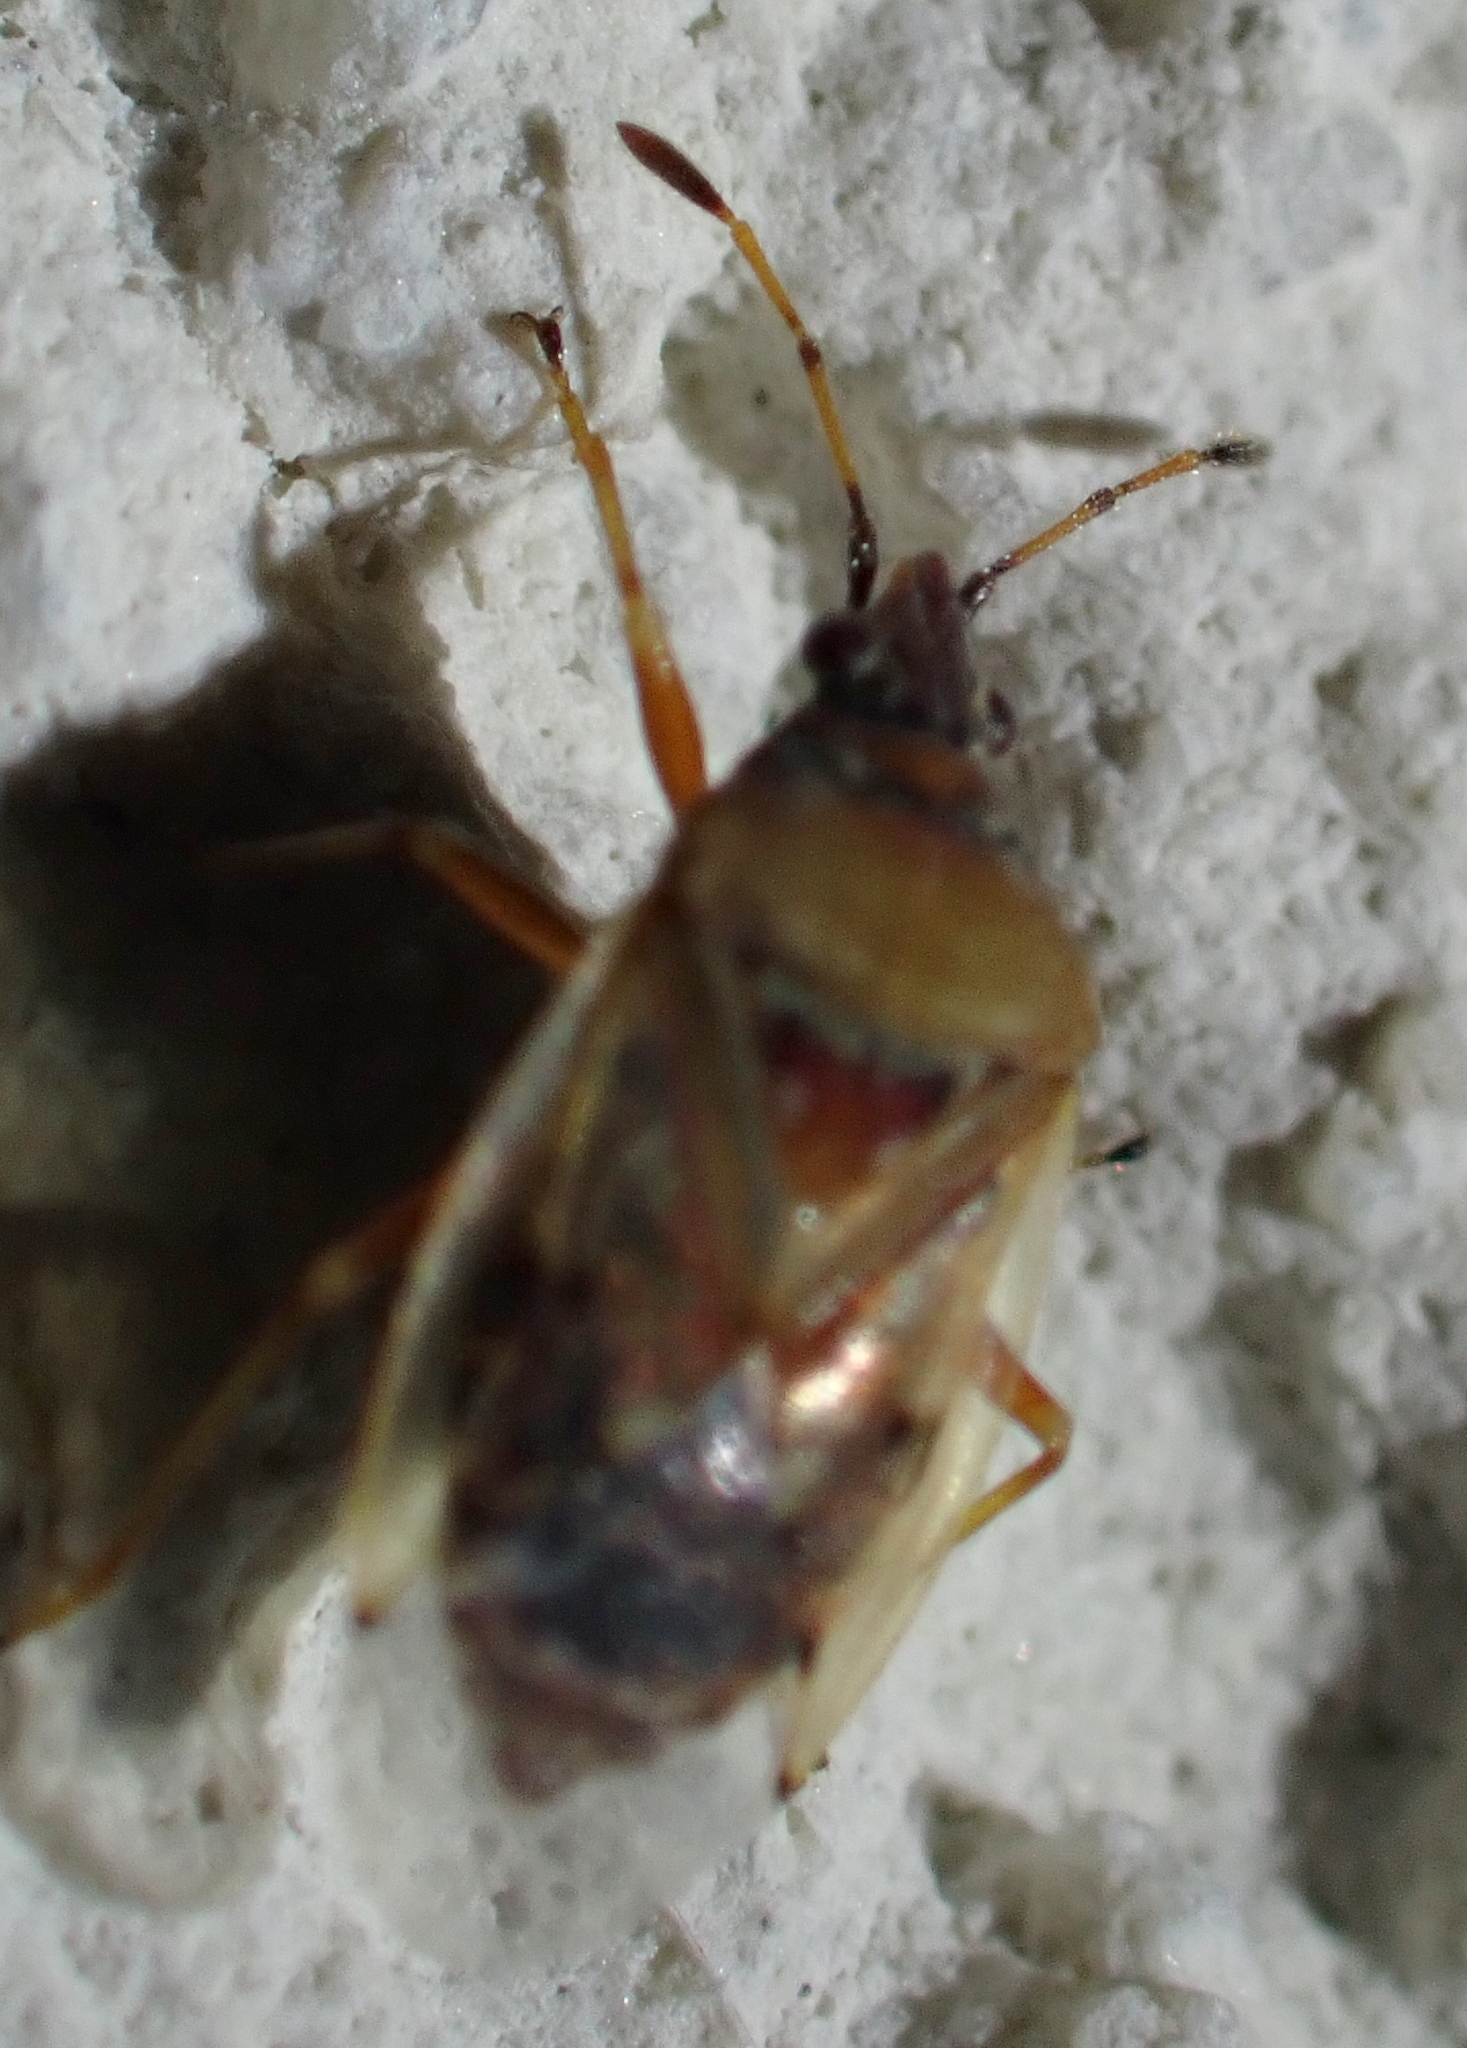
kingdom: Animalia
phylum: Arthropoda
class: Insecta
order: Hemiptera
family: Lygaeidae
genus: Kleidocerys
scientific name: Kleidocerys resedae
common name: Birch catkin bug
